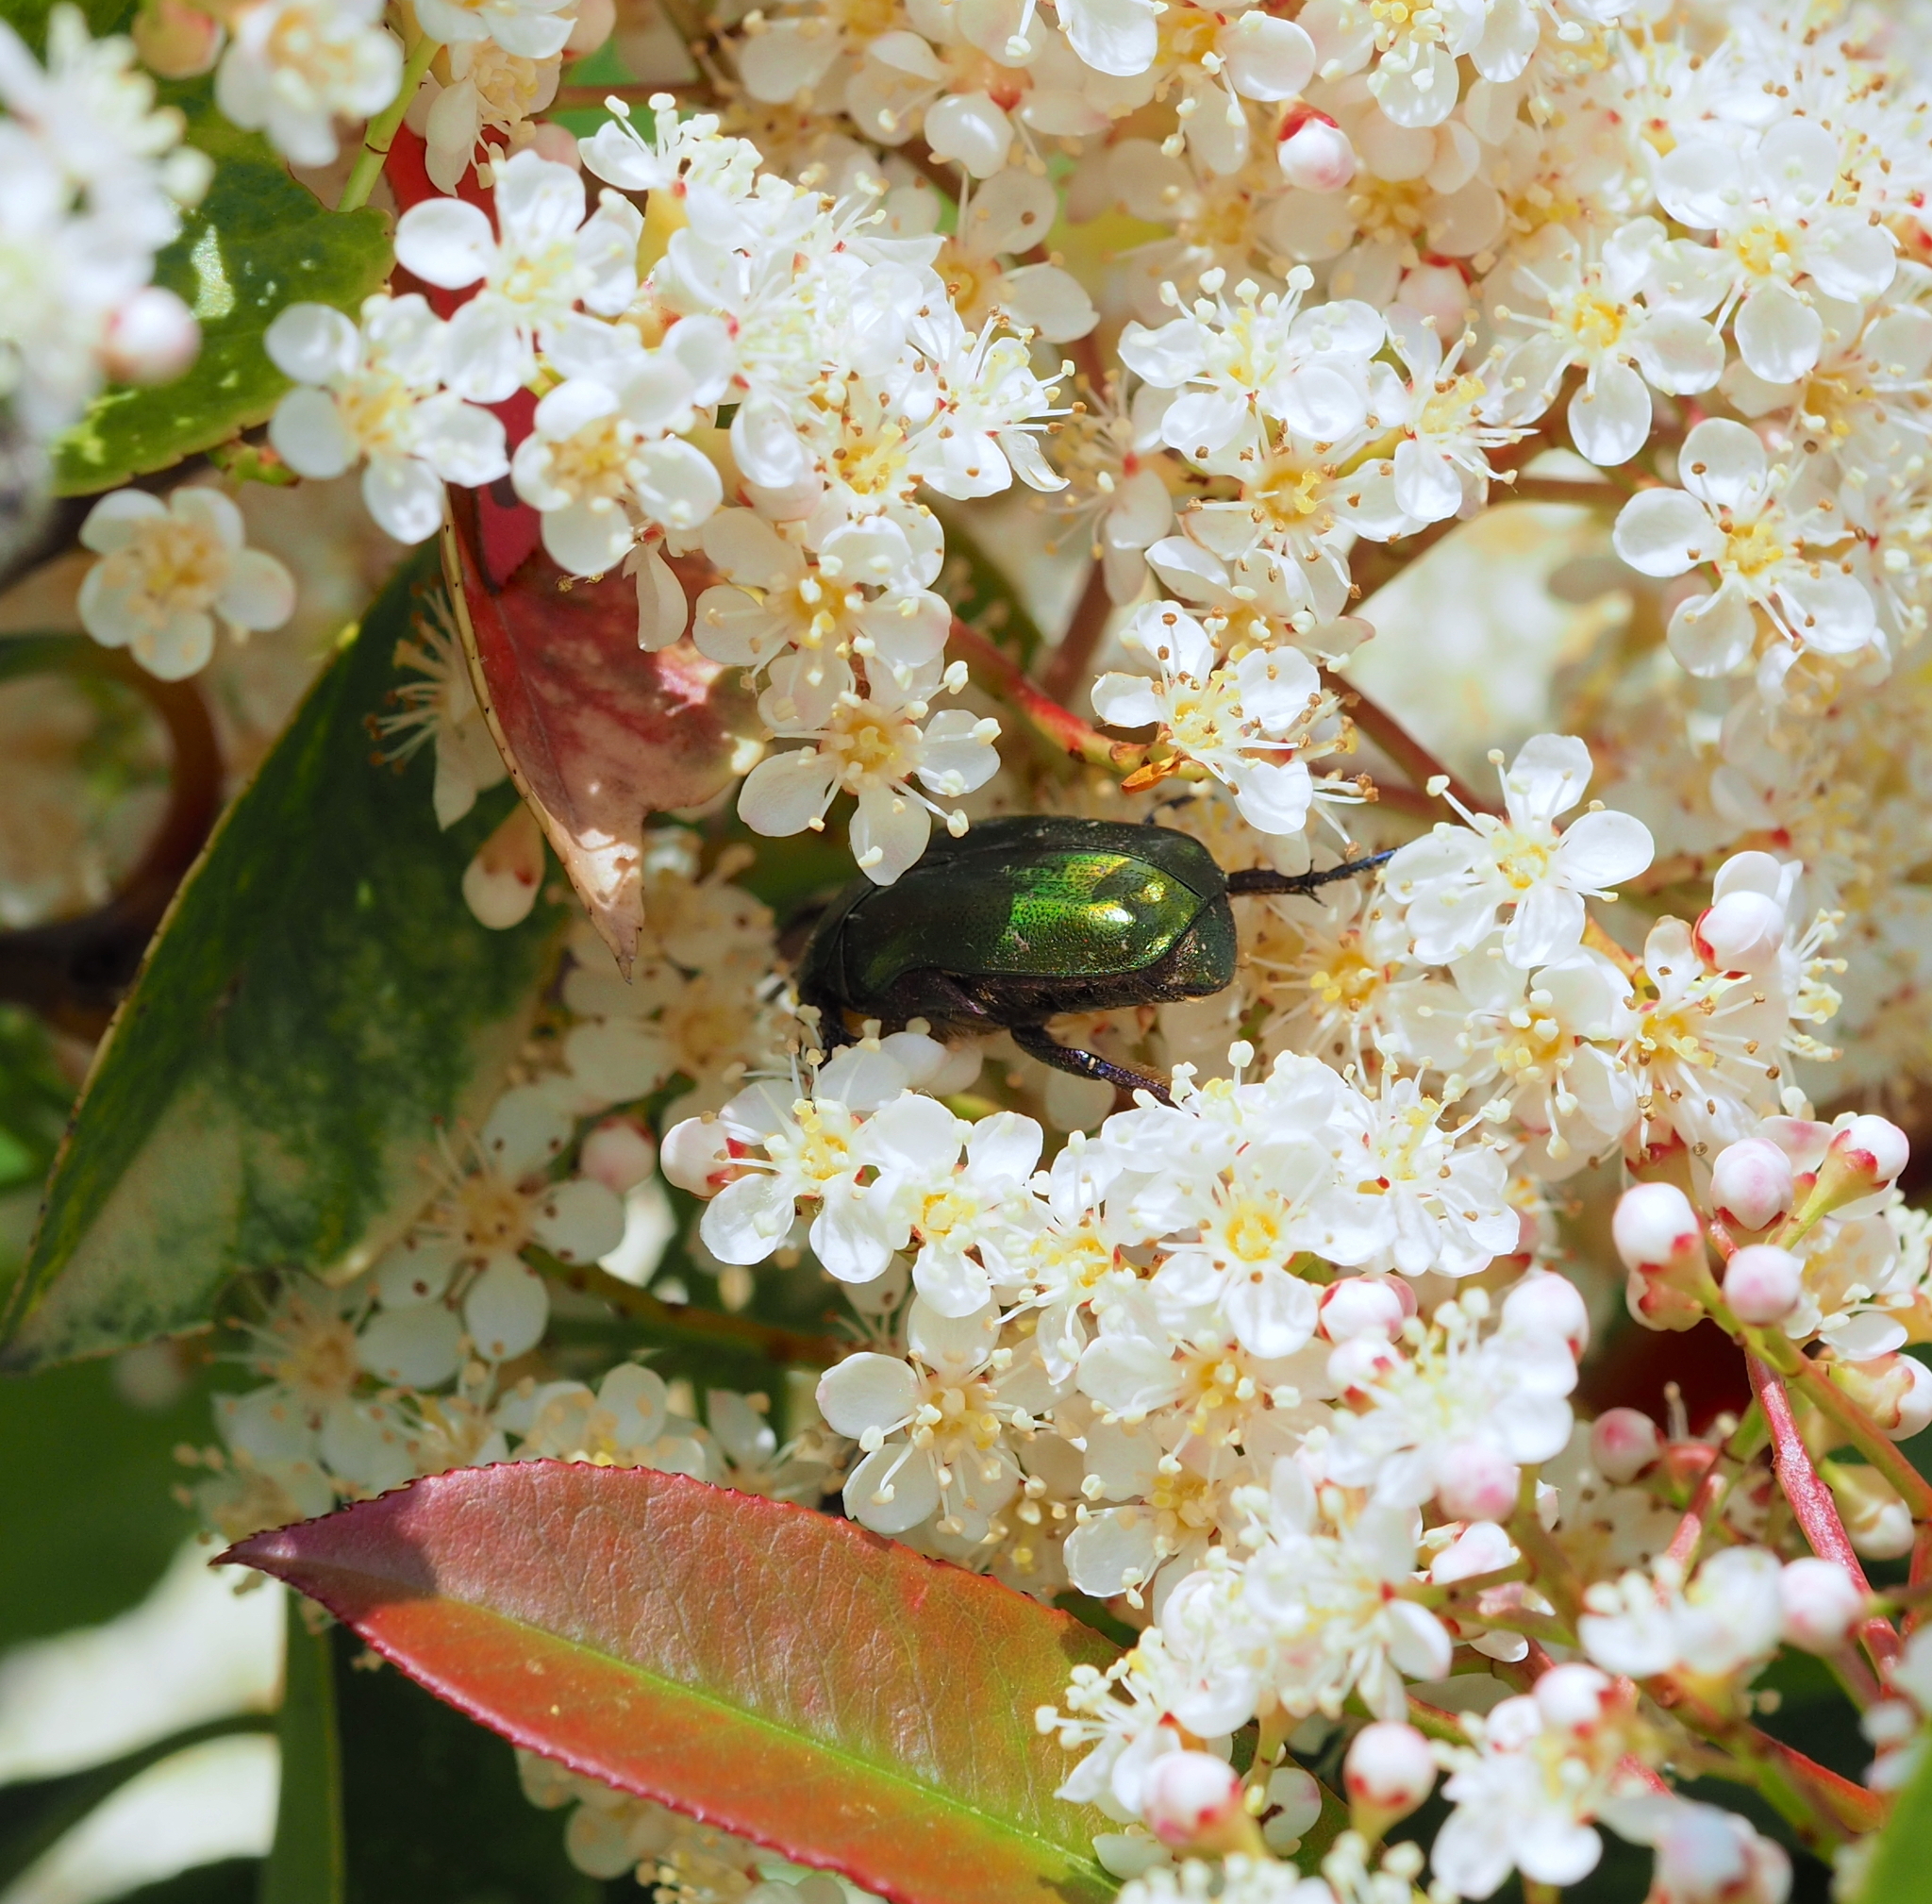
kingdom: Animalia
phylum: Arthropoda
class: Insecta
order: Coleoptera
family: Scarabaeidae
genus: Cetonia
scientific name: Cetonia aurata
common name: Rose chafer
